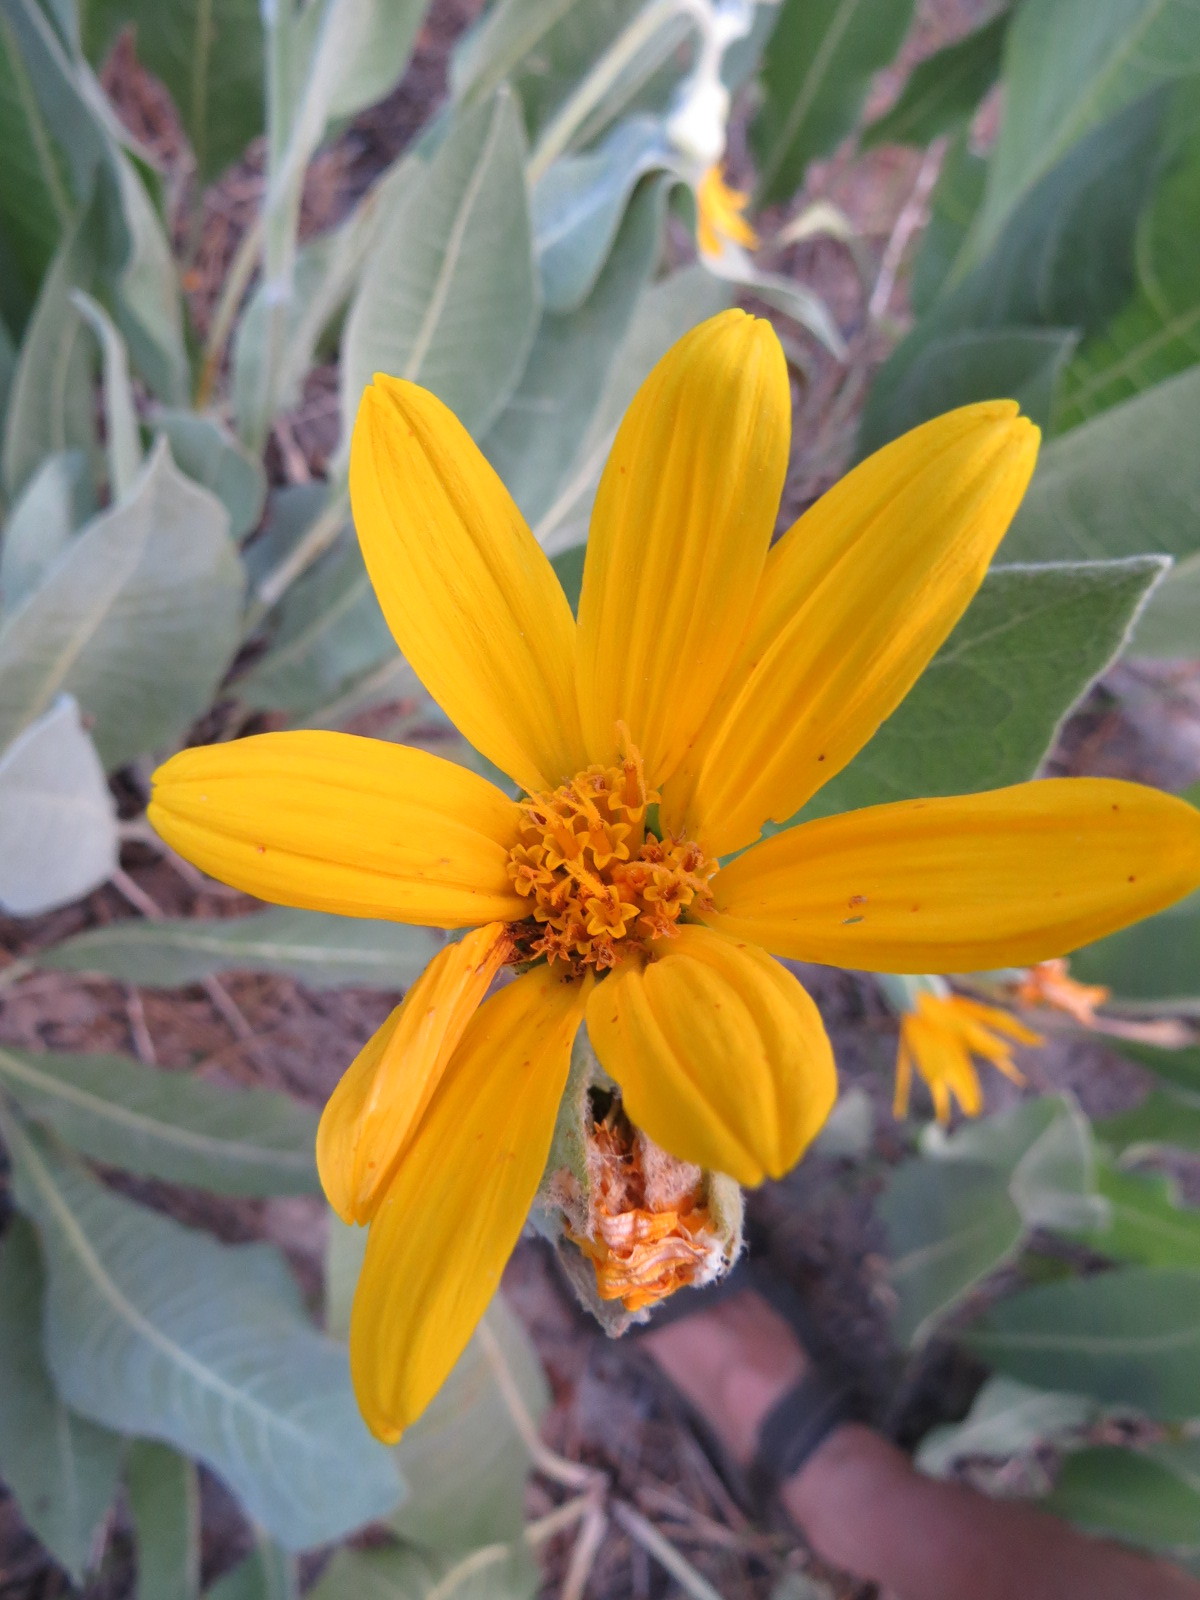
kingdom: Plantae
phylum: Tracheophyta
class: Magnoliopsida
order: Asterales
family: Asteraceae
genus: Wyethia
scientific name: Wyethia mollis
